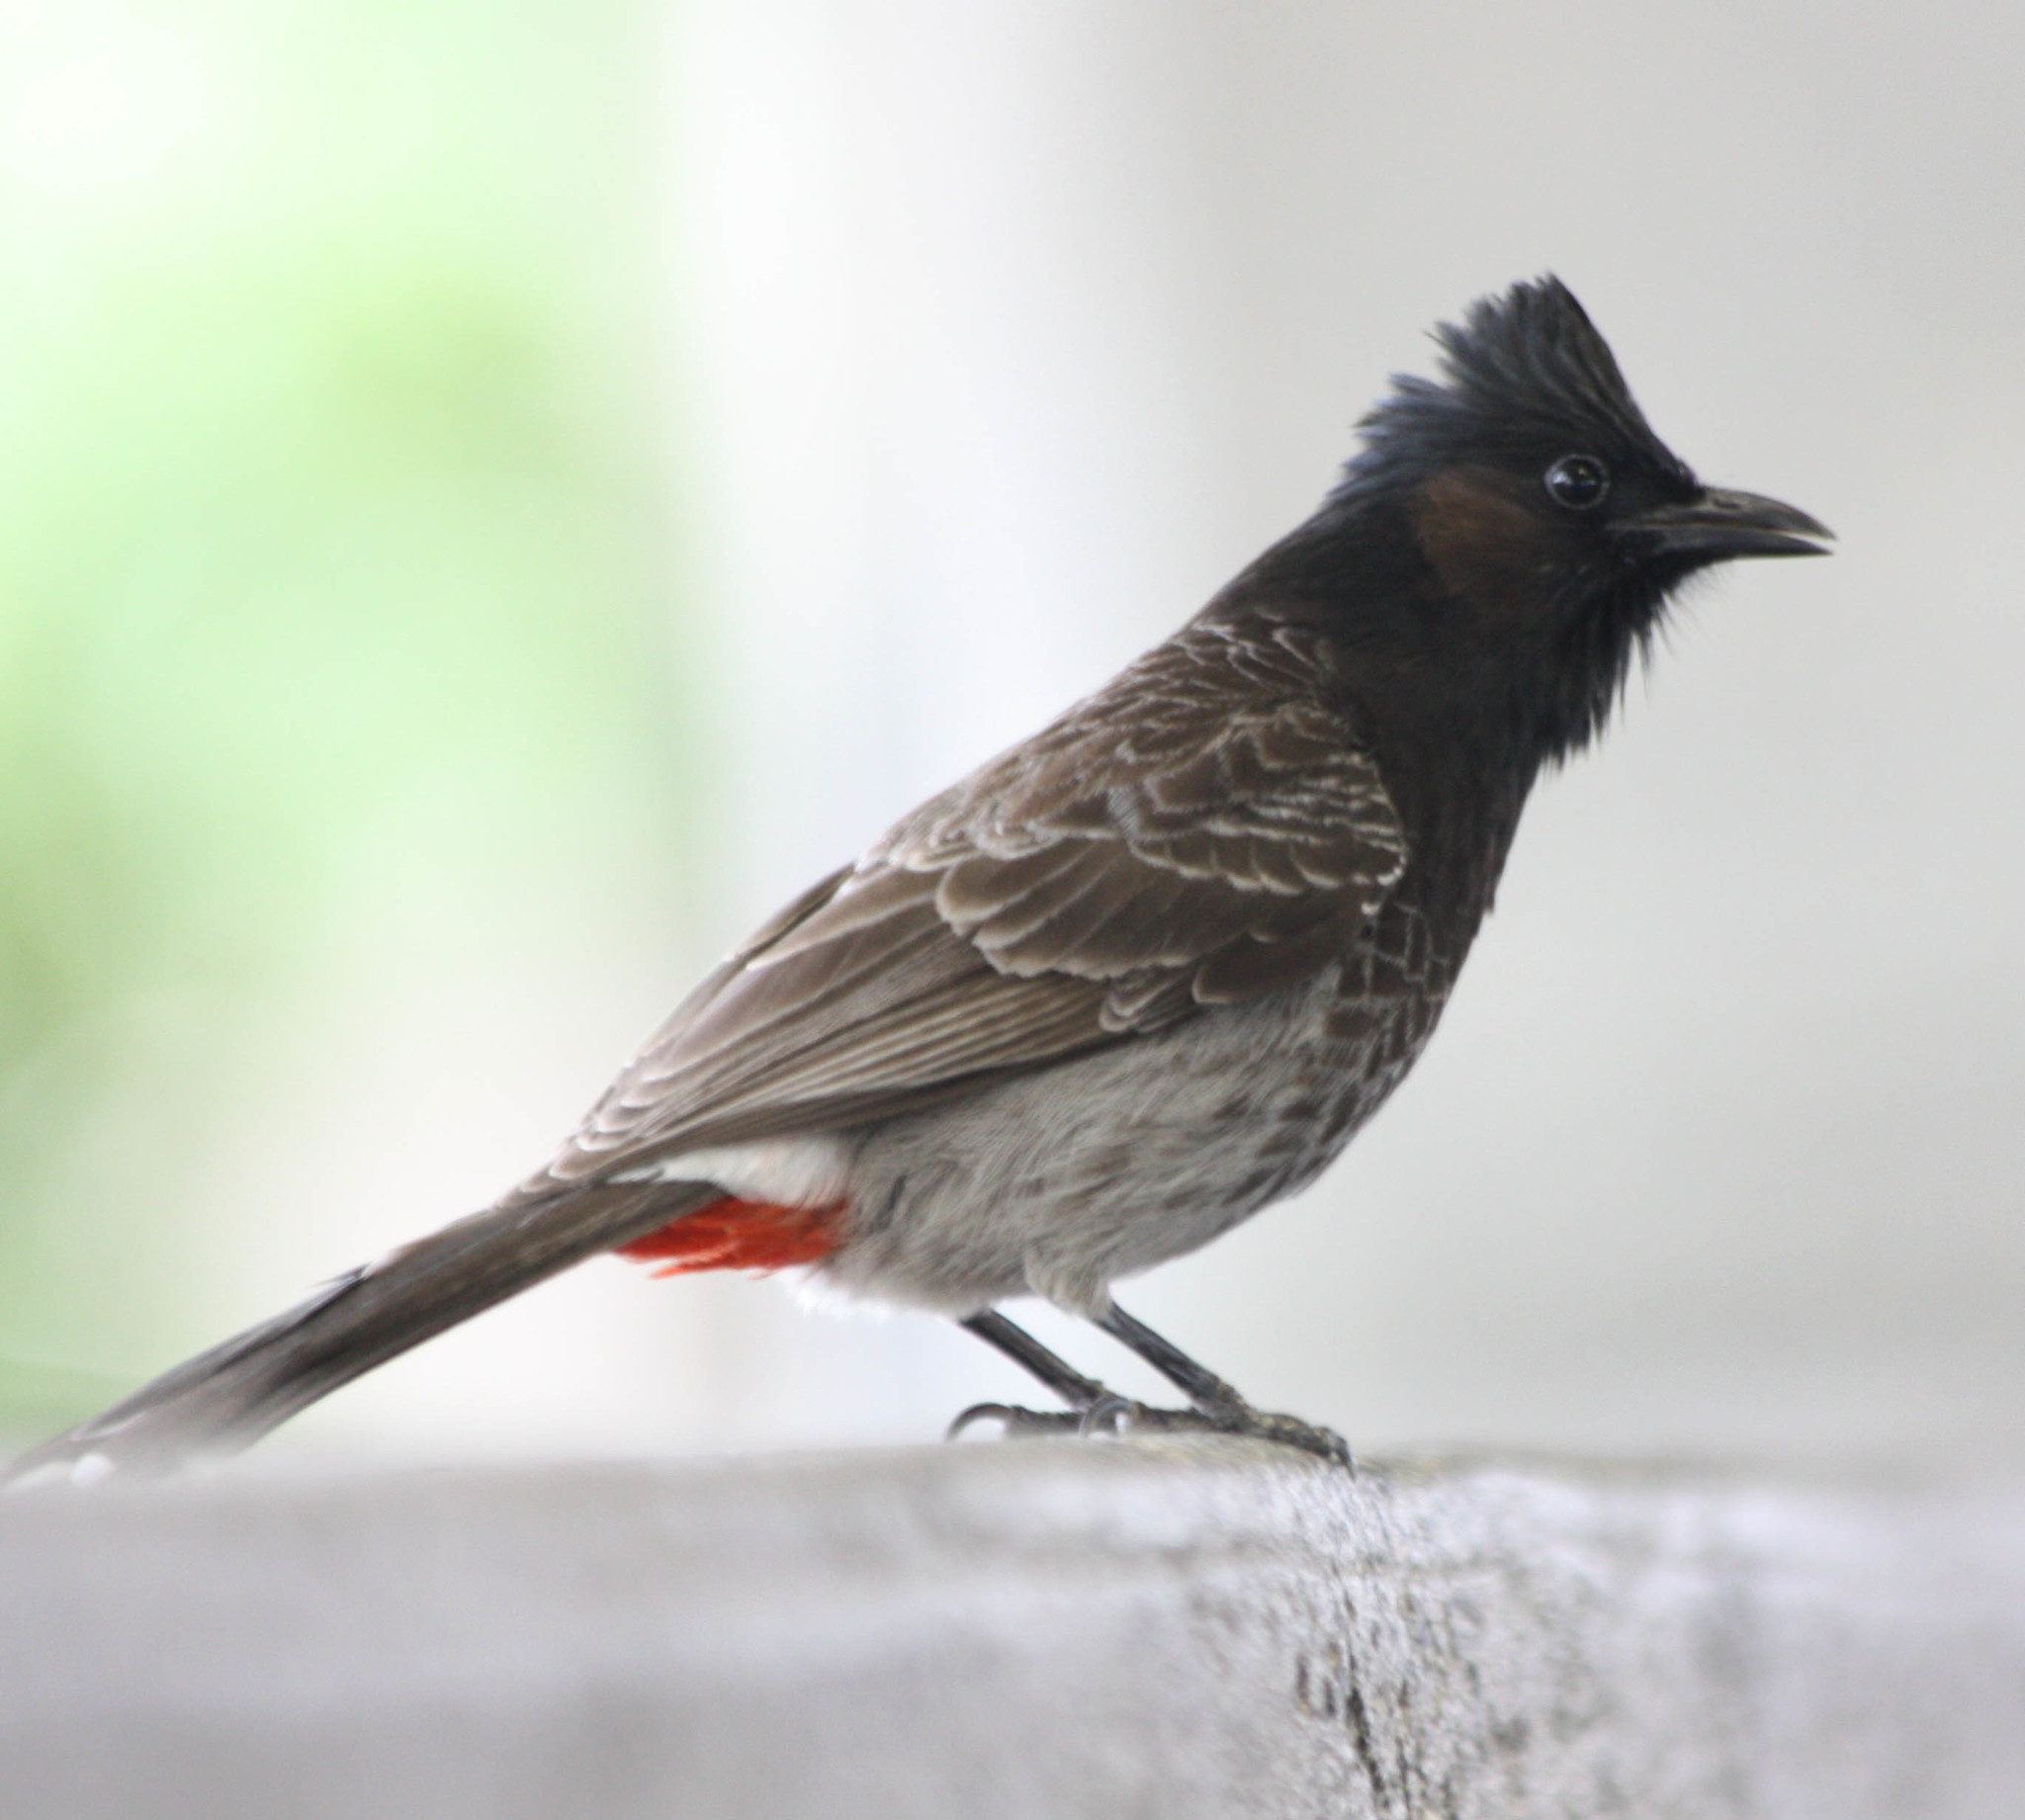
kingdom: Animalia
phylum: Chordata
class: Aves
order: Passeriformes
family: Pycnonotidae
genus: Pycnonotus
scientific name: Pycnonotus cafer
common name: Red-vented bulbul
